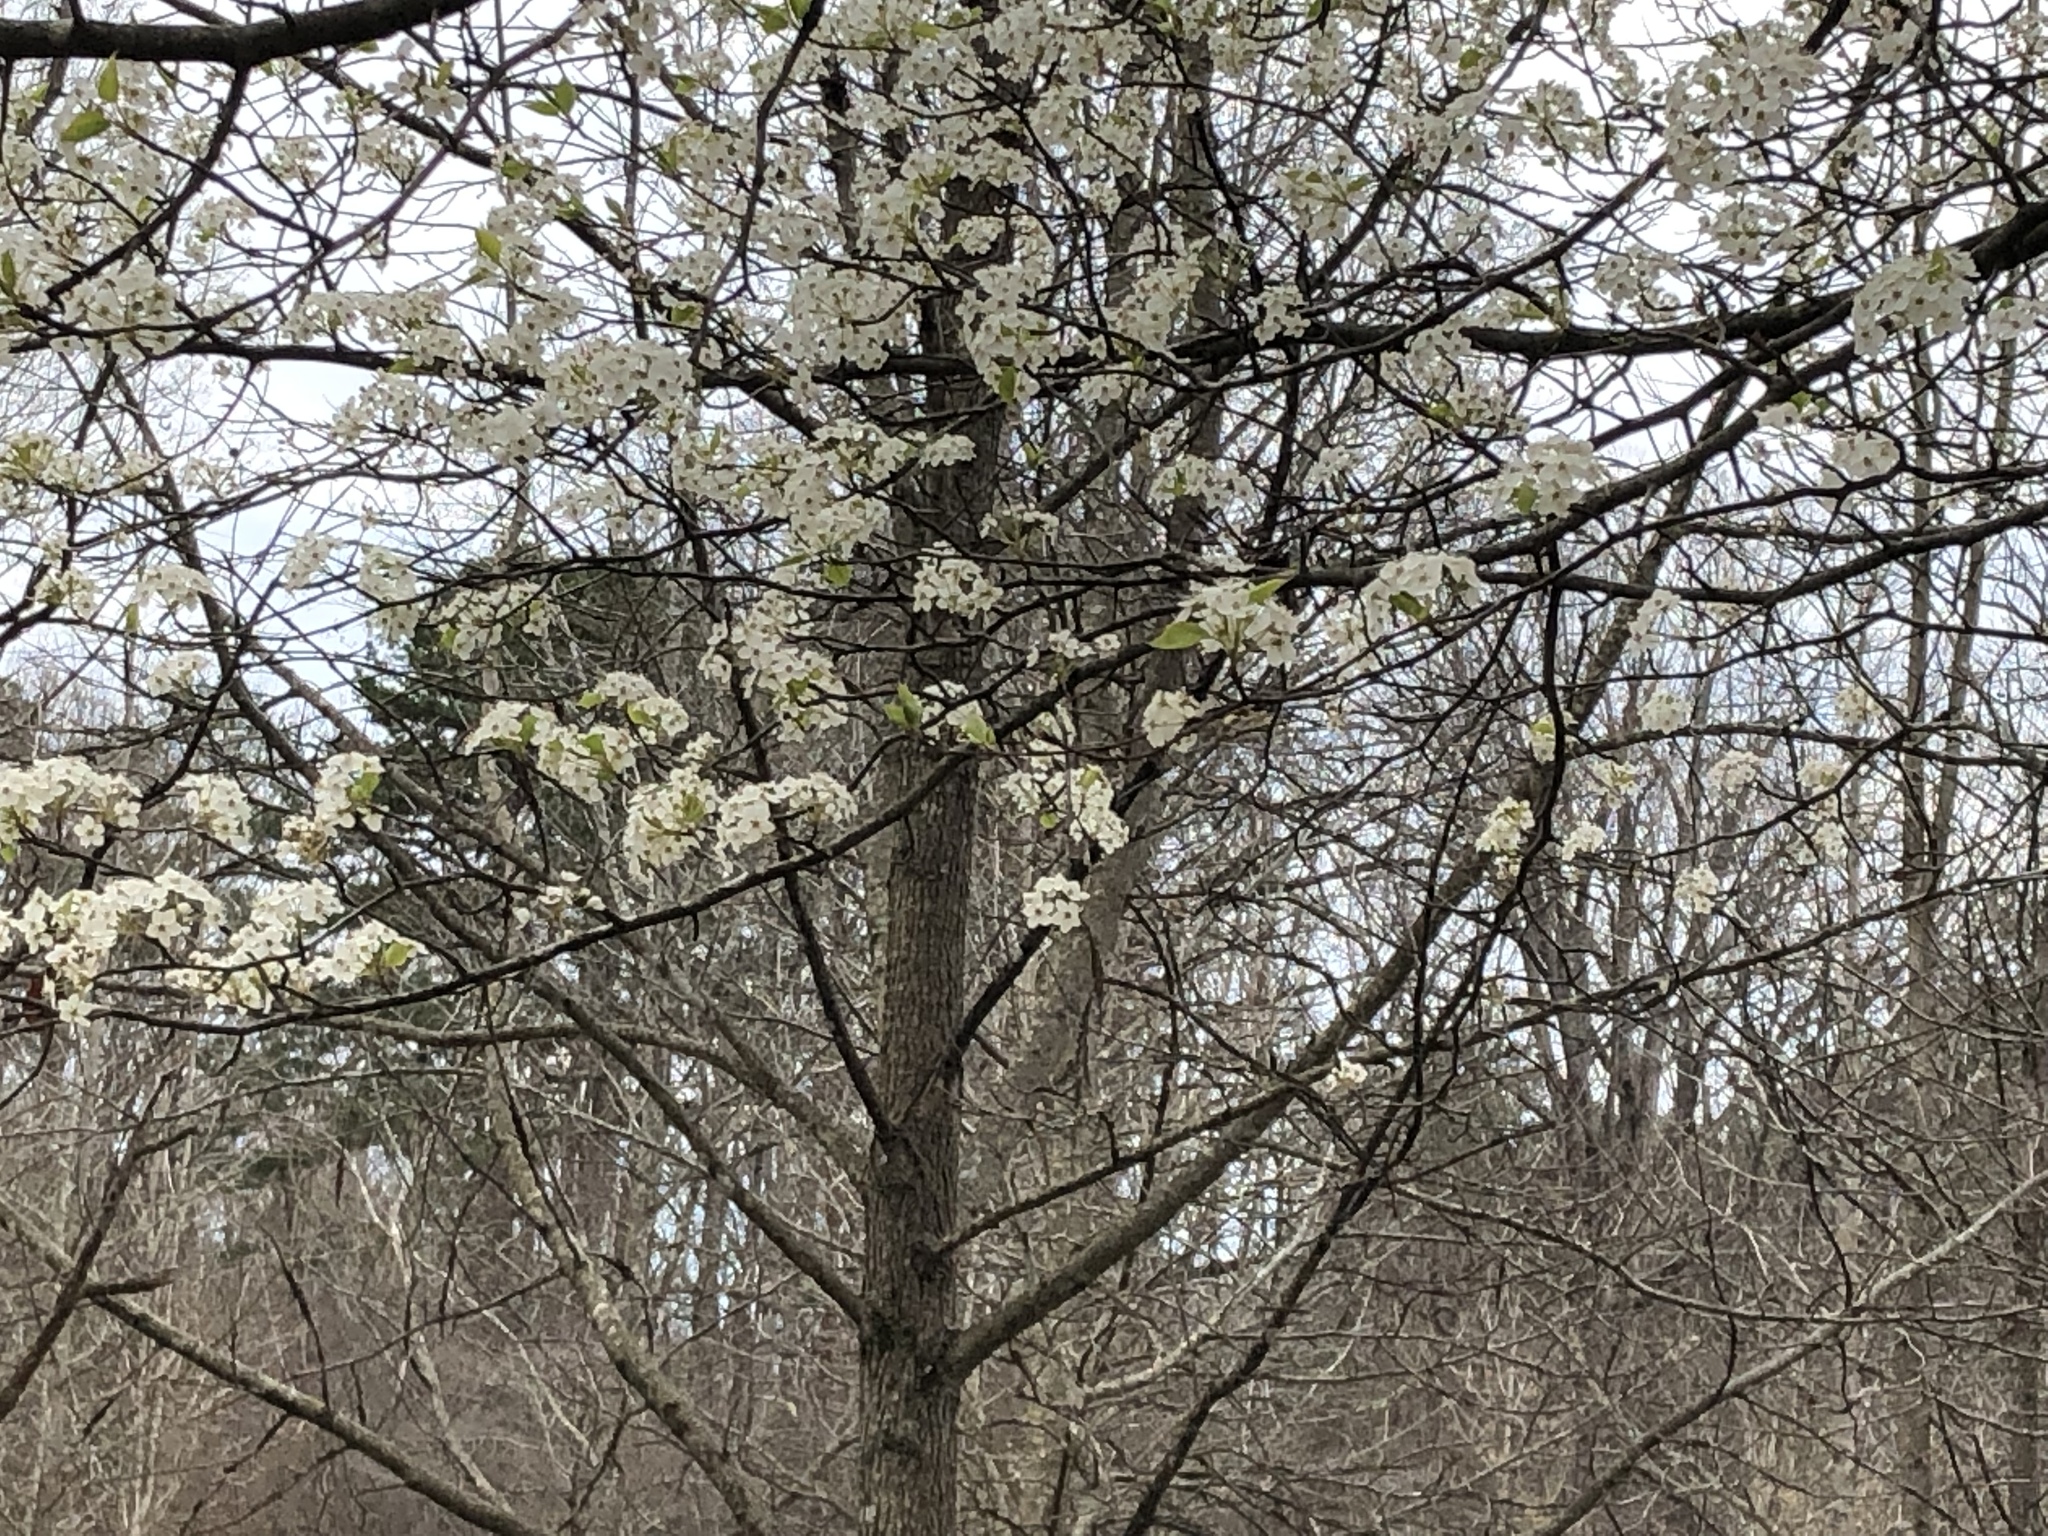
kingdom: Plantae
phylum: Tracheophyta
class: Magnoliopsida
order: Rosales
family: Rosaceae
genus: Pyrus
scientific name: Pyrus calleryana
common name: Callery pear
